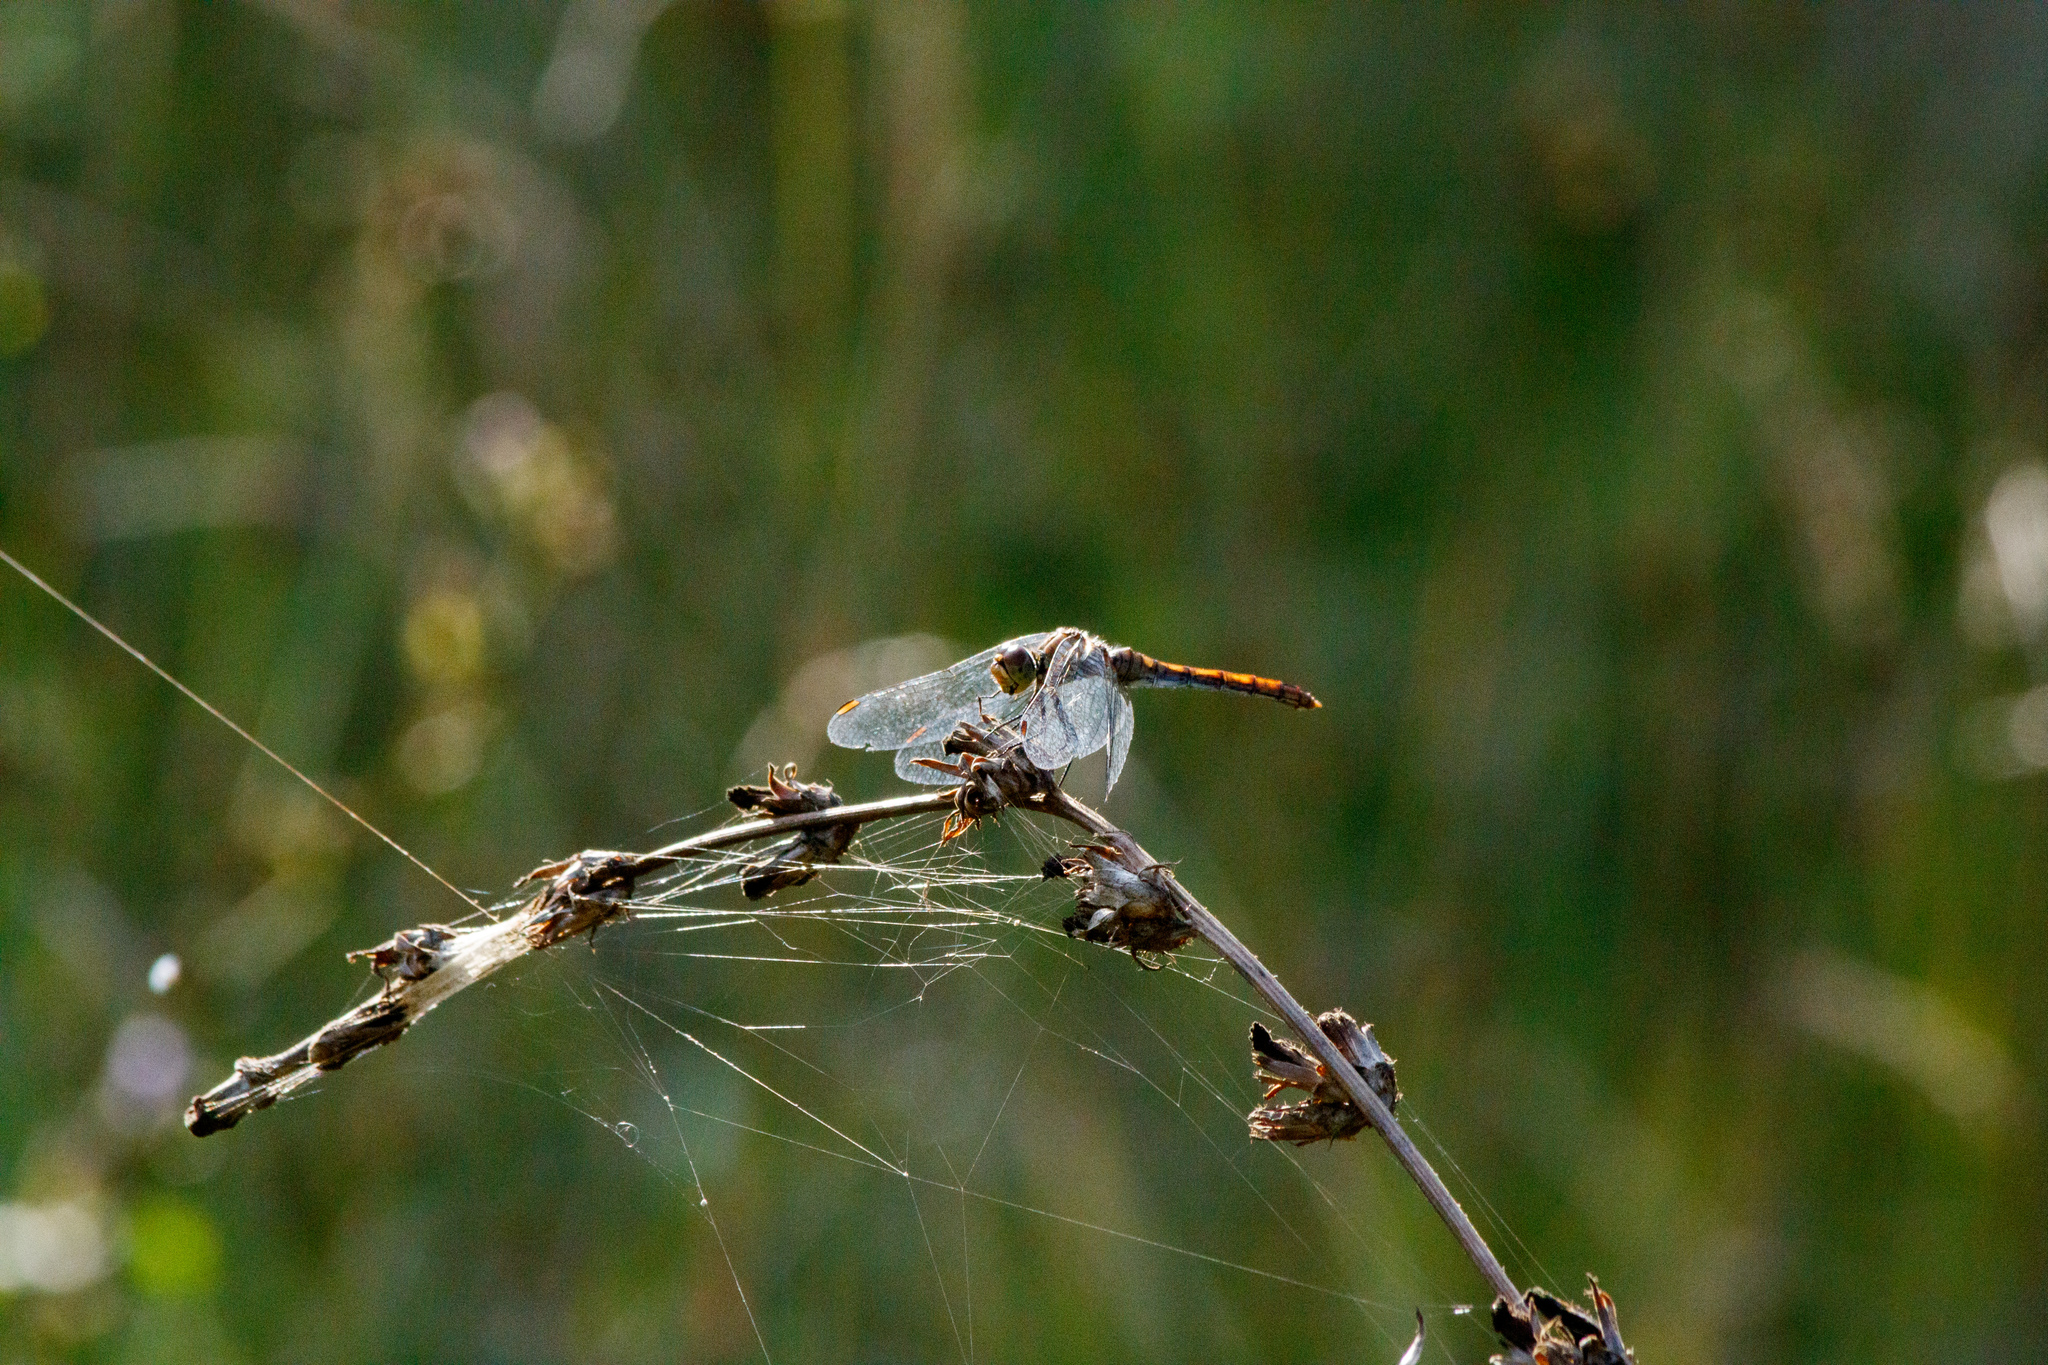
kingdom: Animalia
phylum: Arthropoda
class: Insecta
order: Odonata
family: Libellulidae
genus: Sympetrum
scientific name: Sympetrum sanguineum
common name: Ruddy darter
